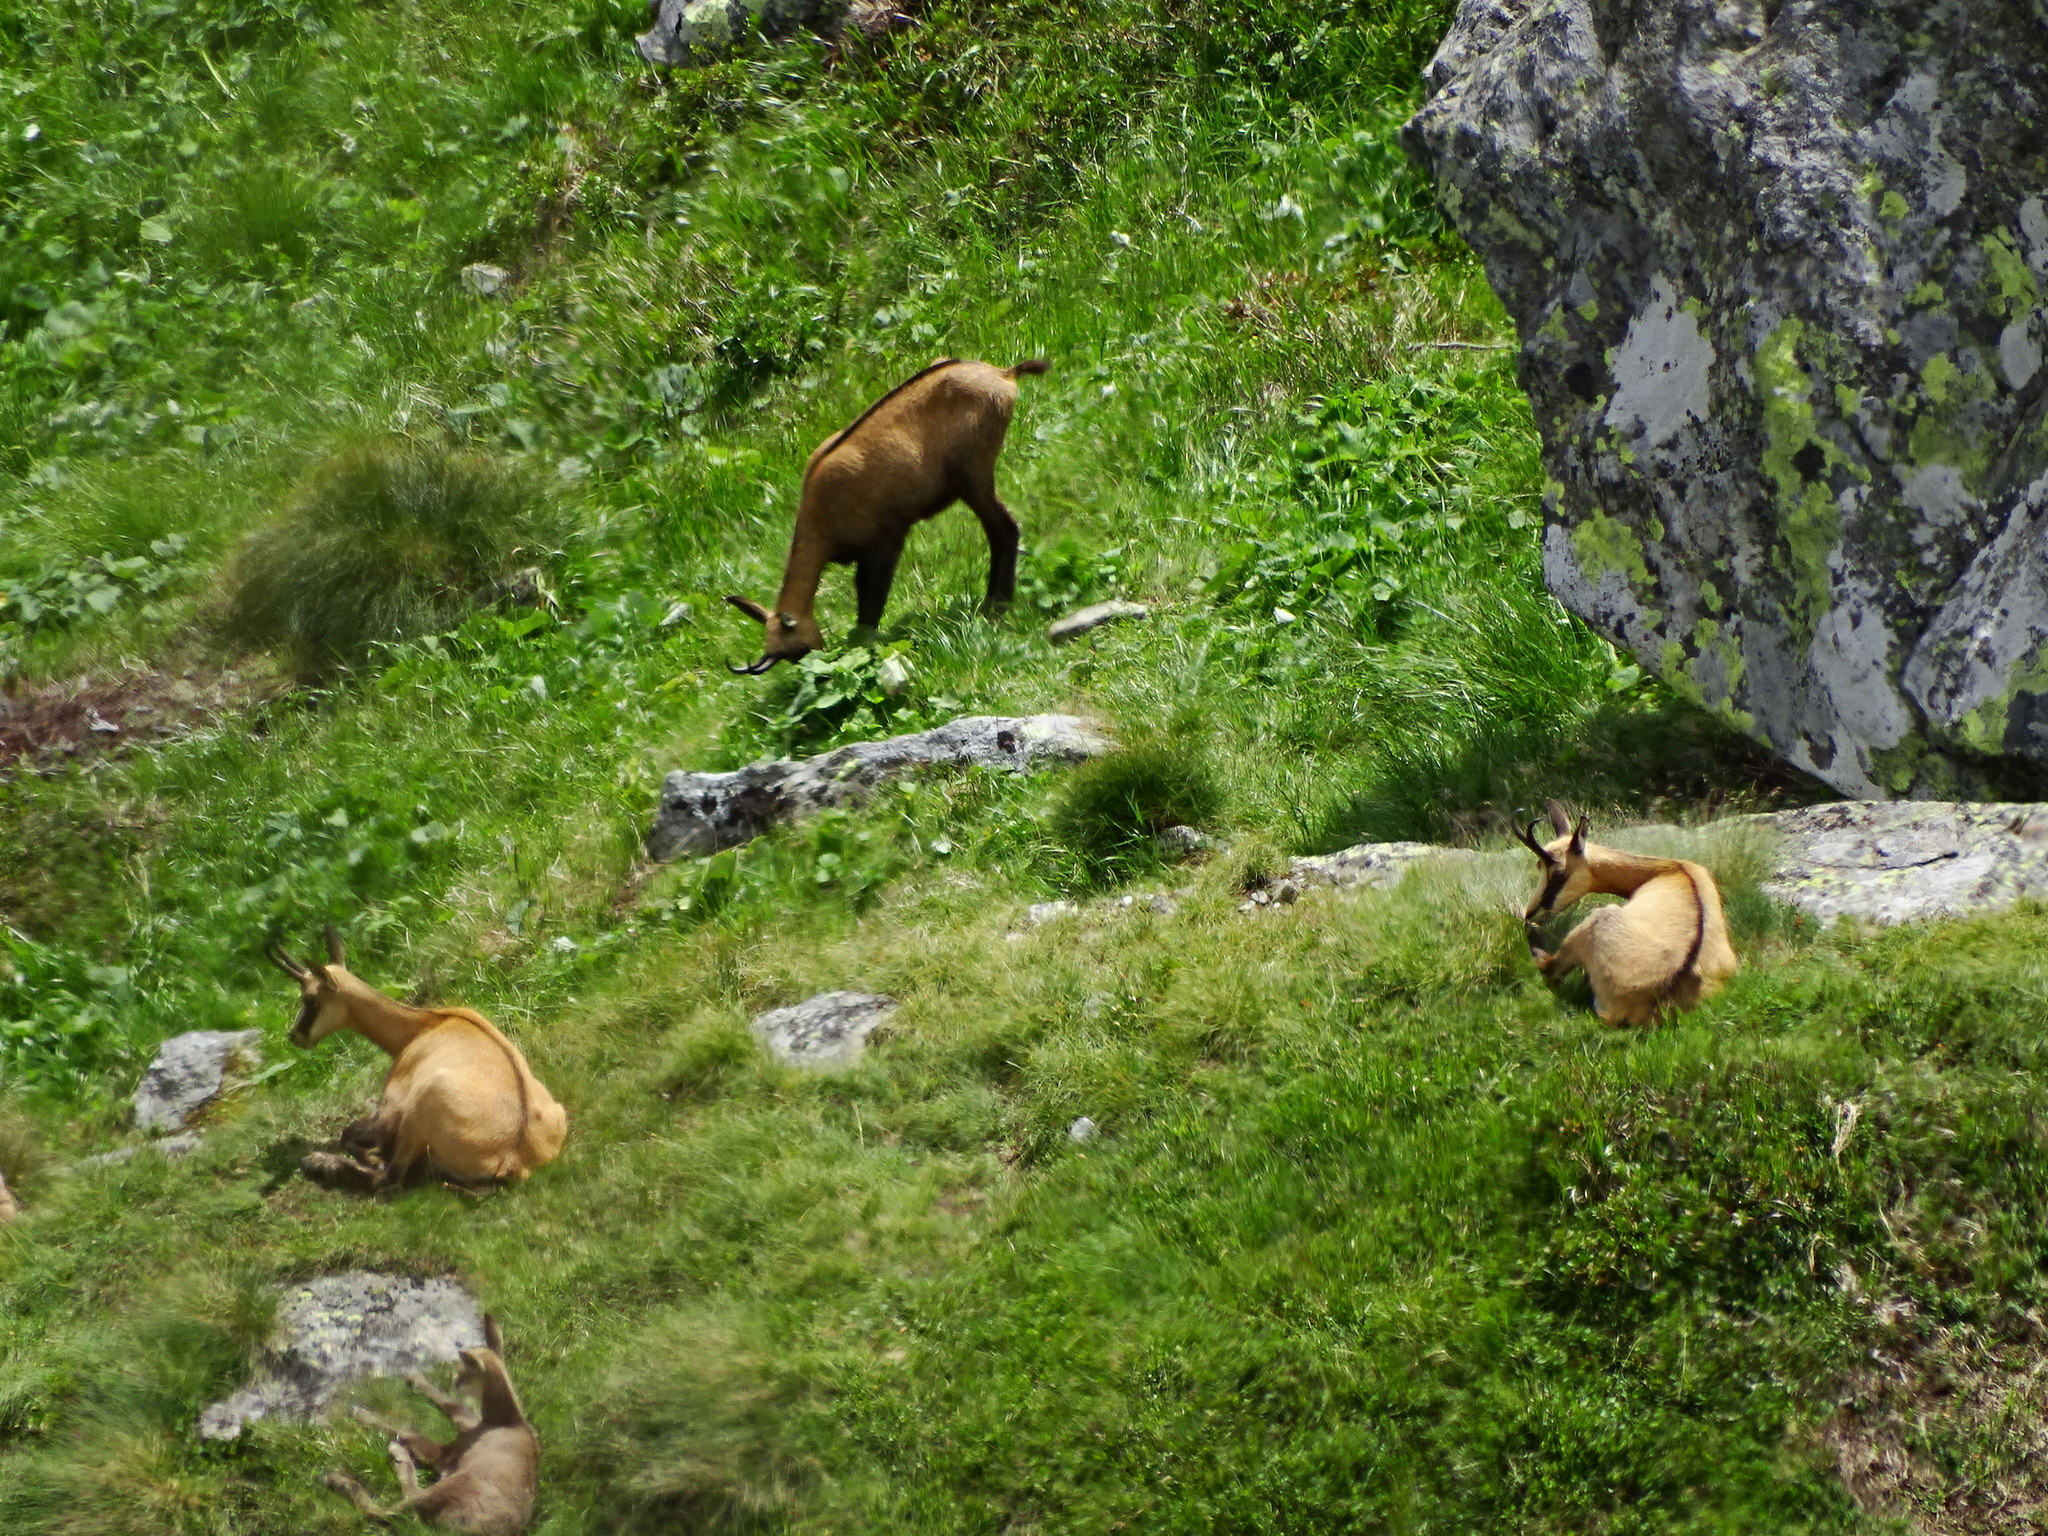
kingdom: Animalia
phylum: Chordata
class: Mammalia
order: Artiodactyla
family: Bovidae
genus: Rupicapra
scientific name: Rupicapra rupicapra
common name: Chamois
